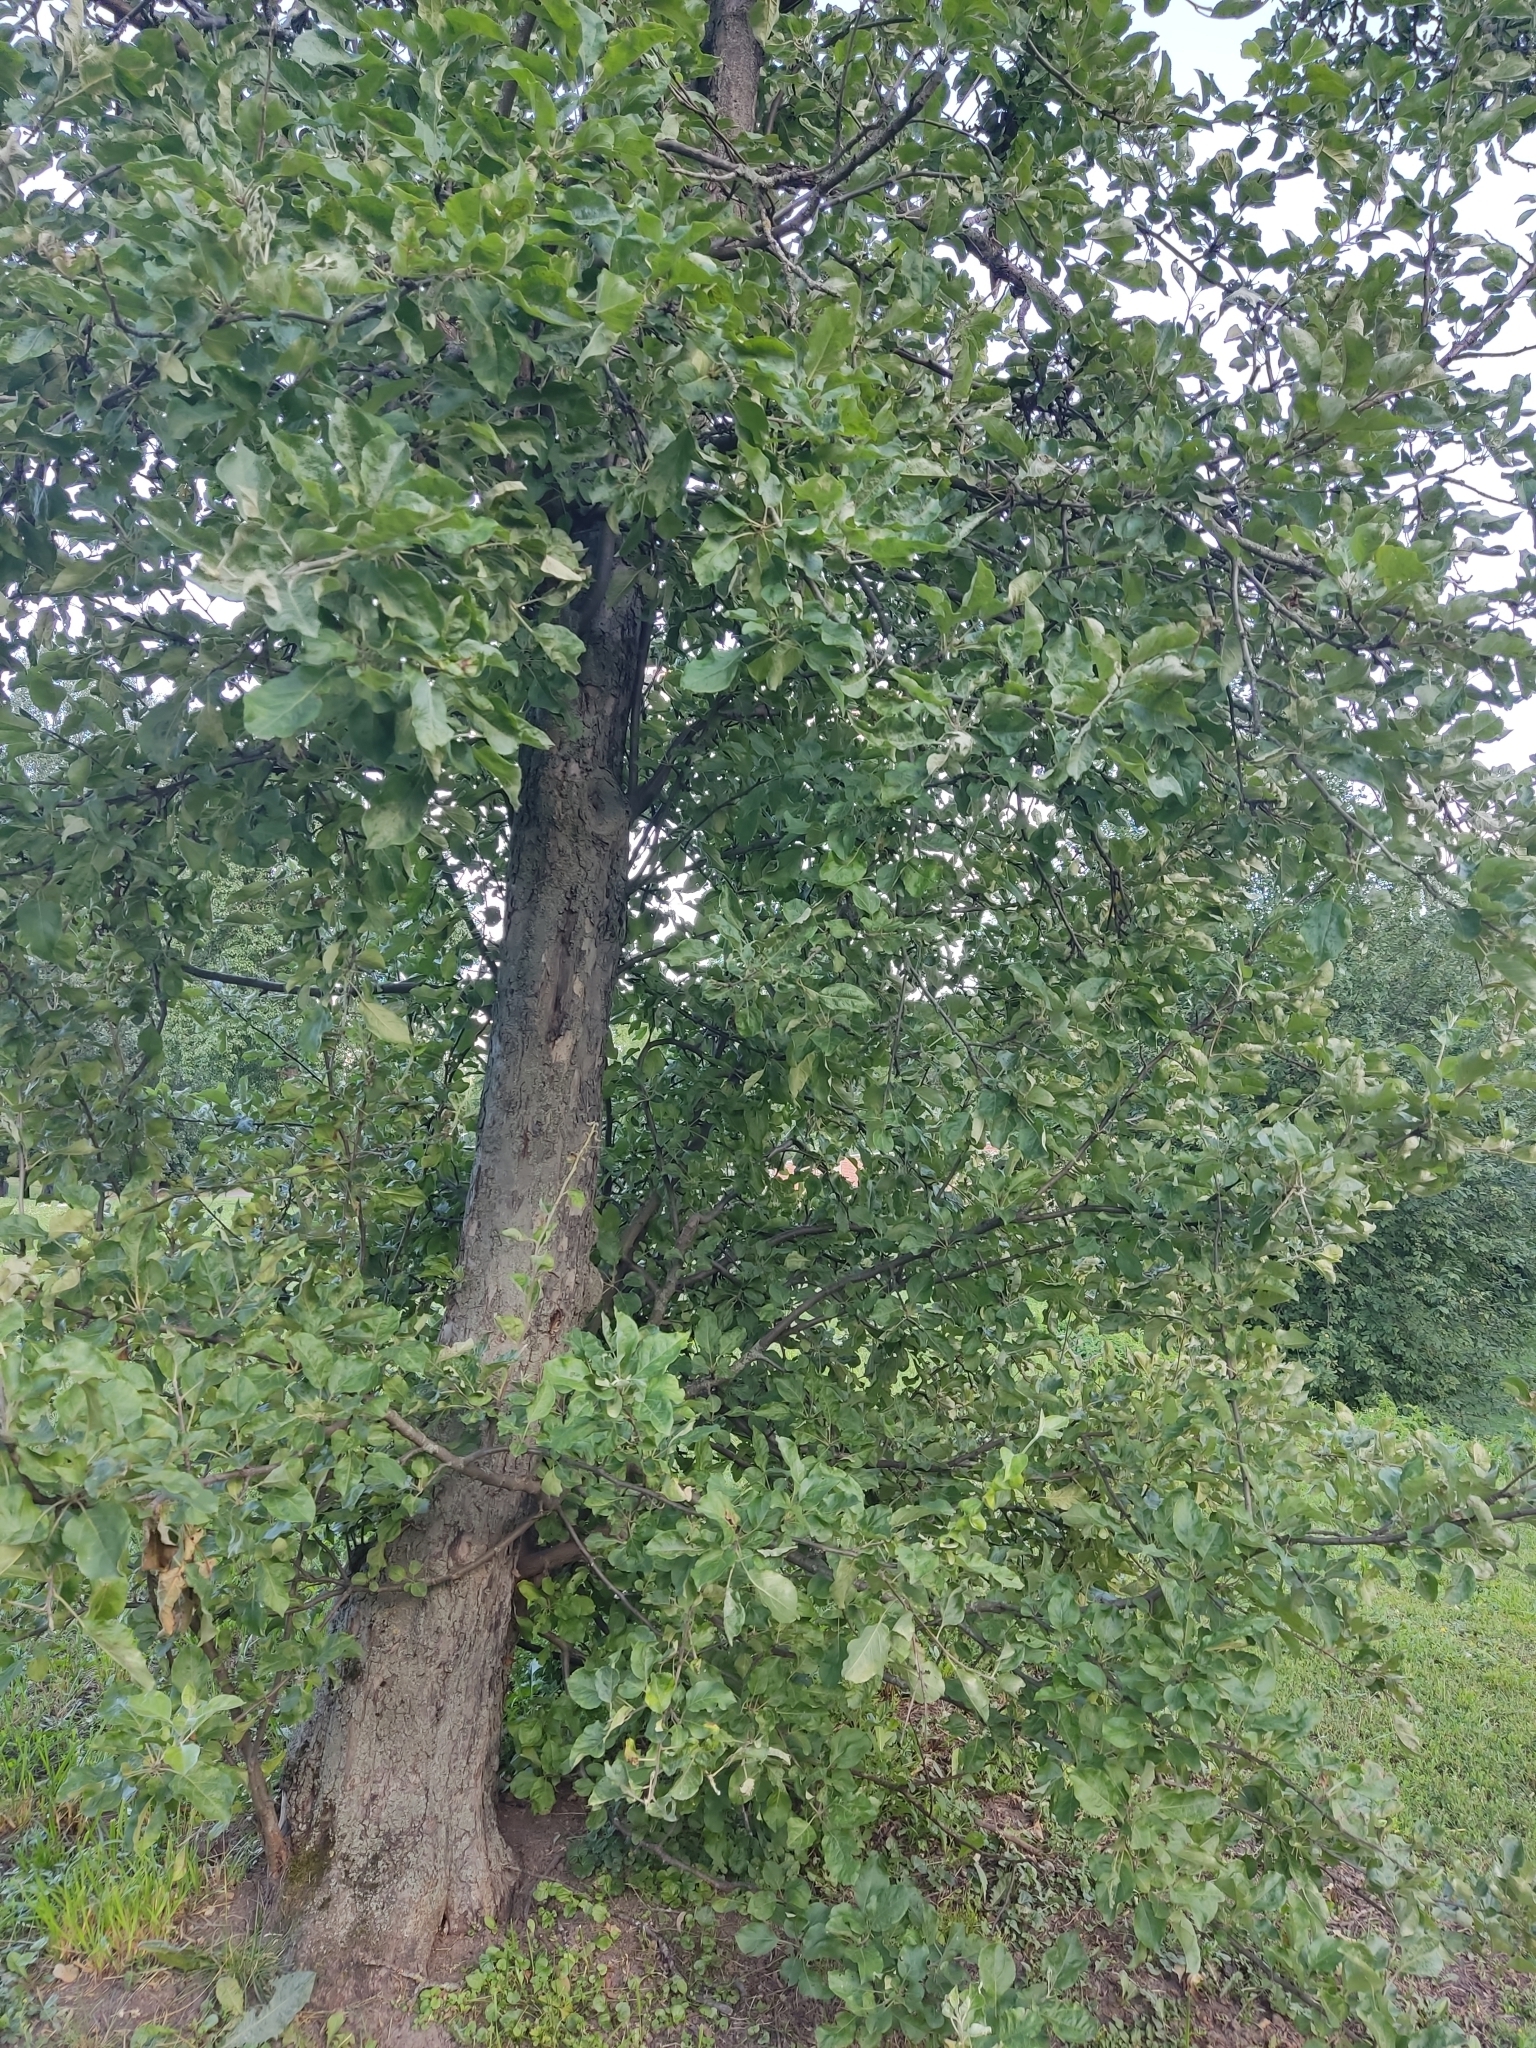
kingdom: Plantae
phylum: Tracheophyta
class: Magnoliopsida
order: Rosales
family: Rosaceae
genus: Malus
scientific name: Malus domestica
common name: Apple
